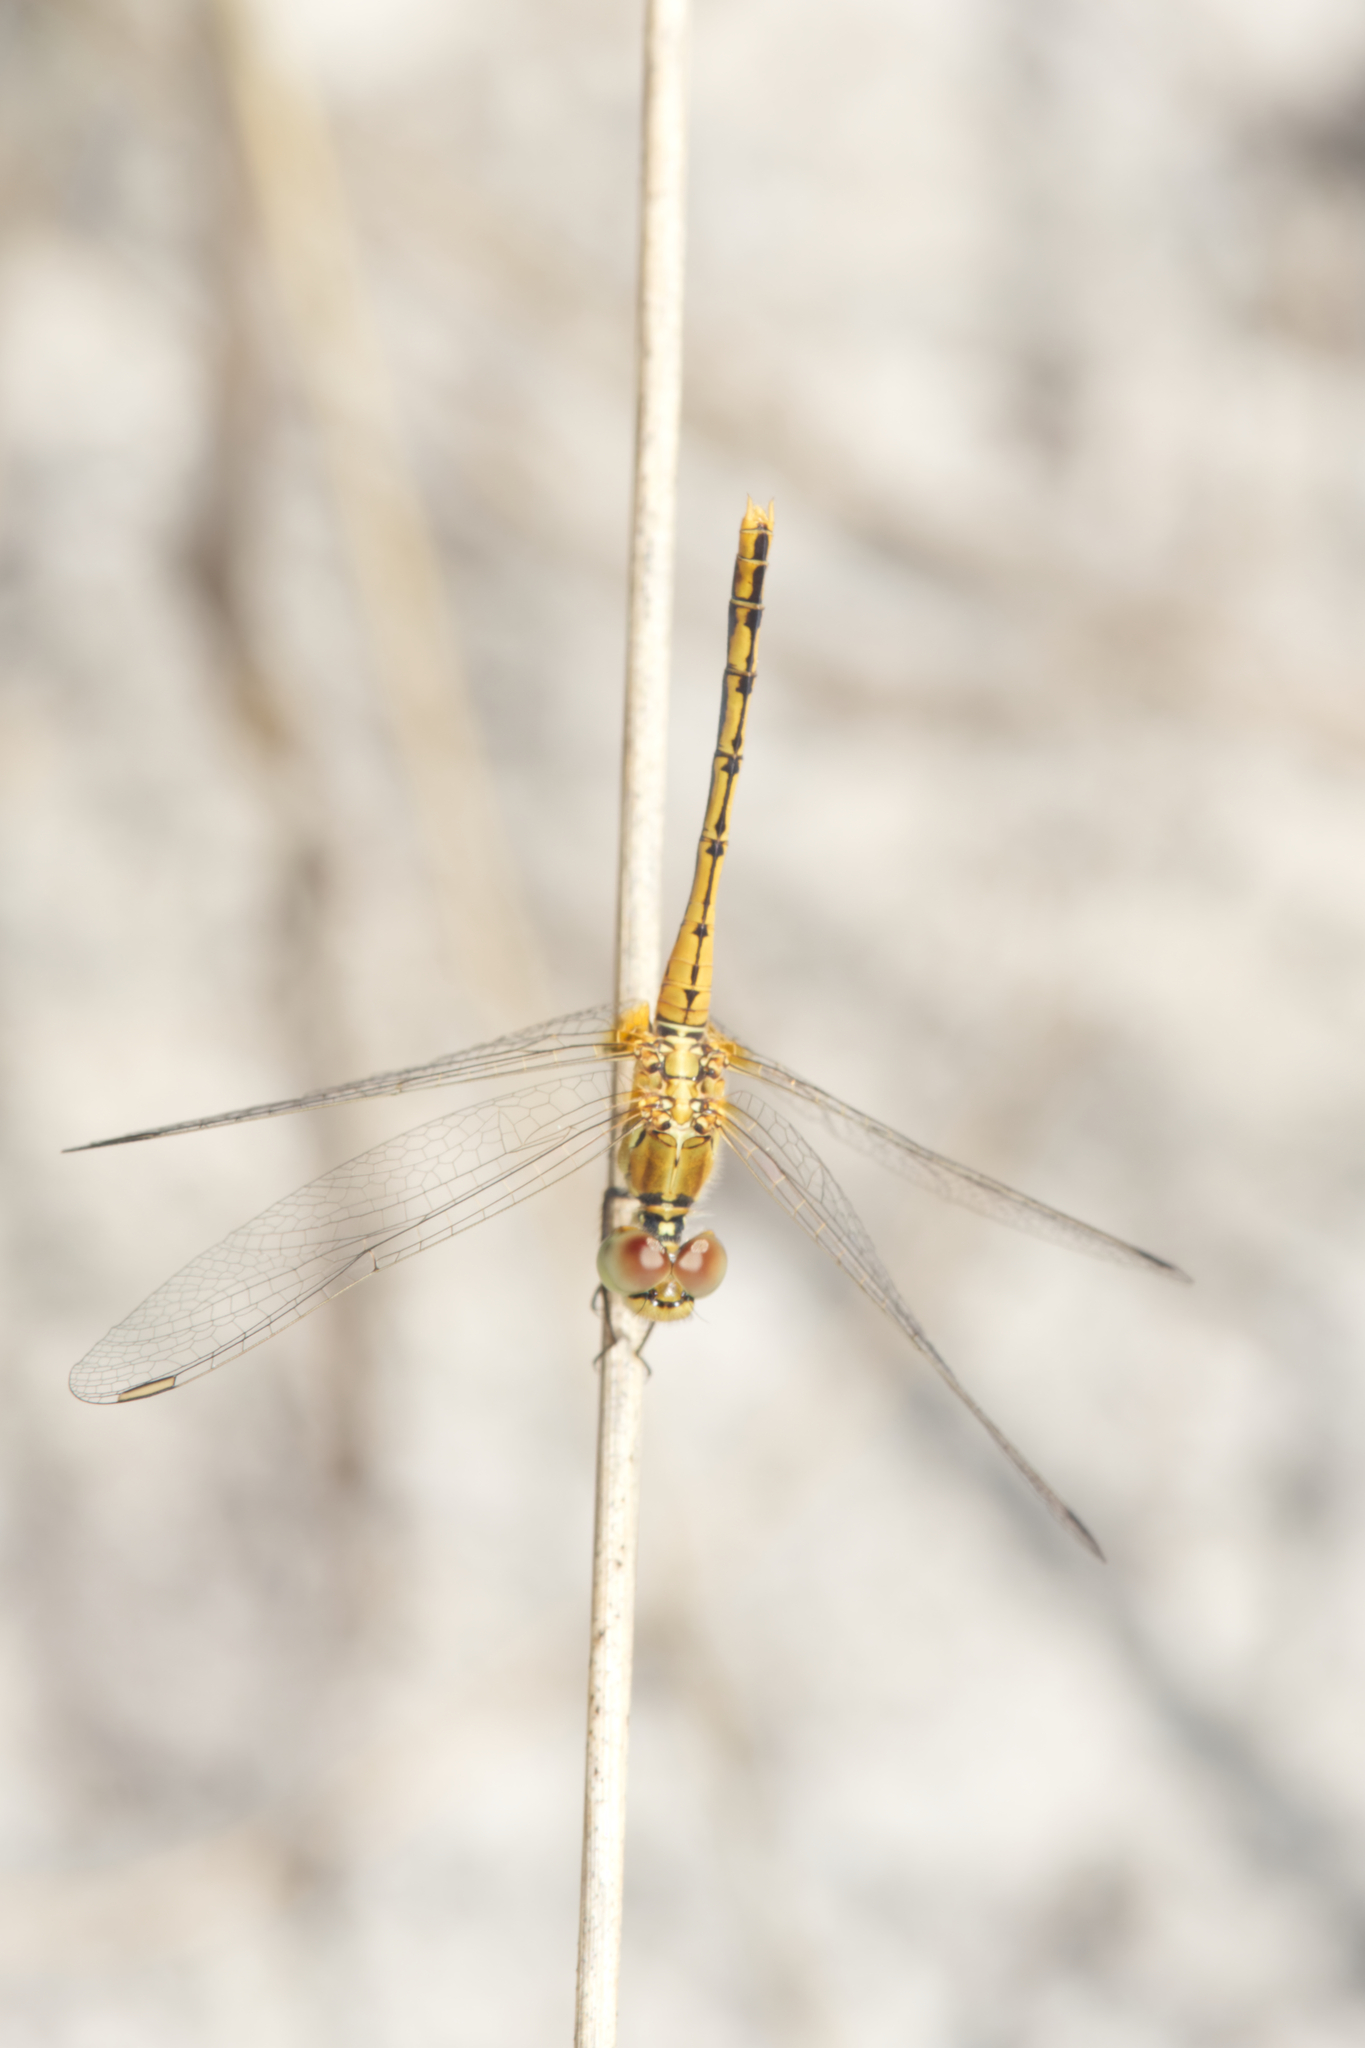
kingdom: Animalia
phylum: Arthropoda
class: Insecta
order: Odonata
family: Libellulidae
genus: Diplacodes
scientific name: Diplacodes bipunctata
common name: Red percher dragonfly
